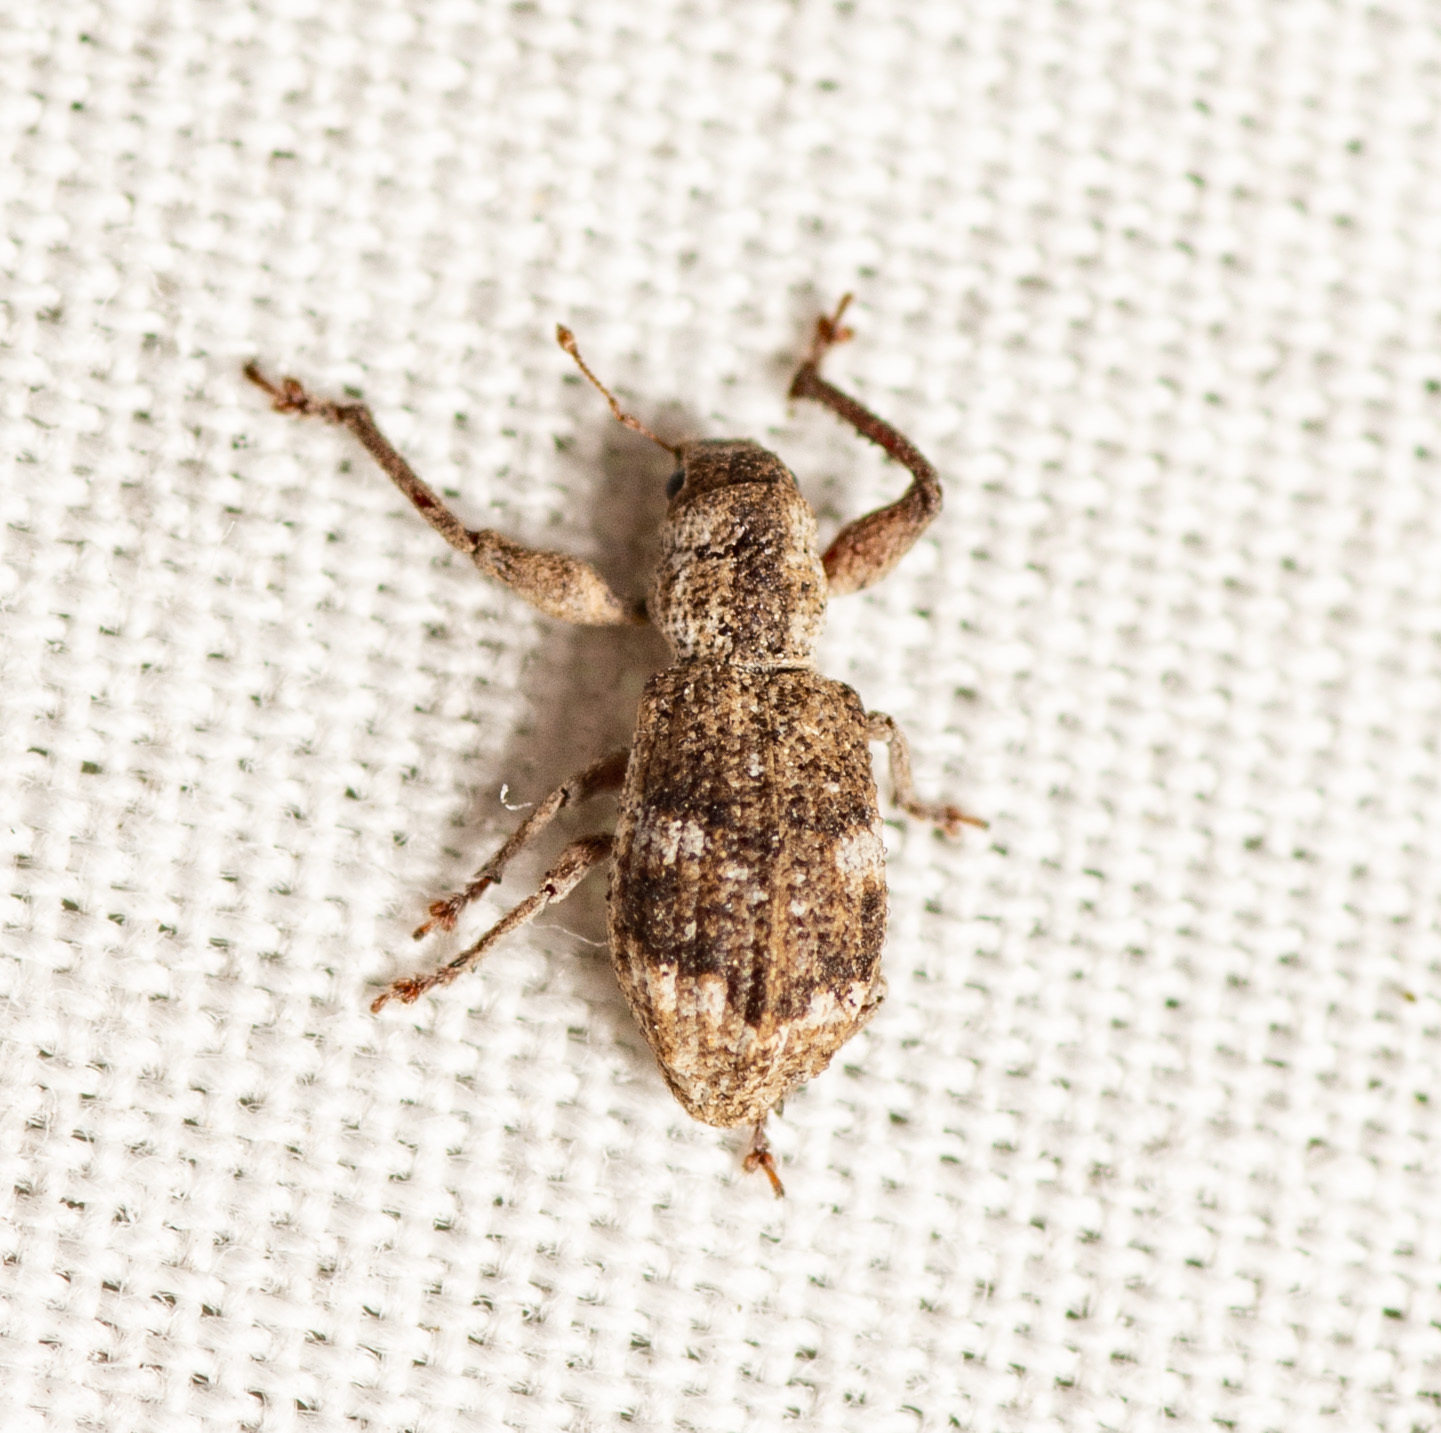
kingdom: Animalia
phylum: Arthropoda
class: Insecta
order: Coleoptera
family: Curculionidae
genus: Pandeleteius
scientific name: Pandeleteius cinereus
